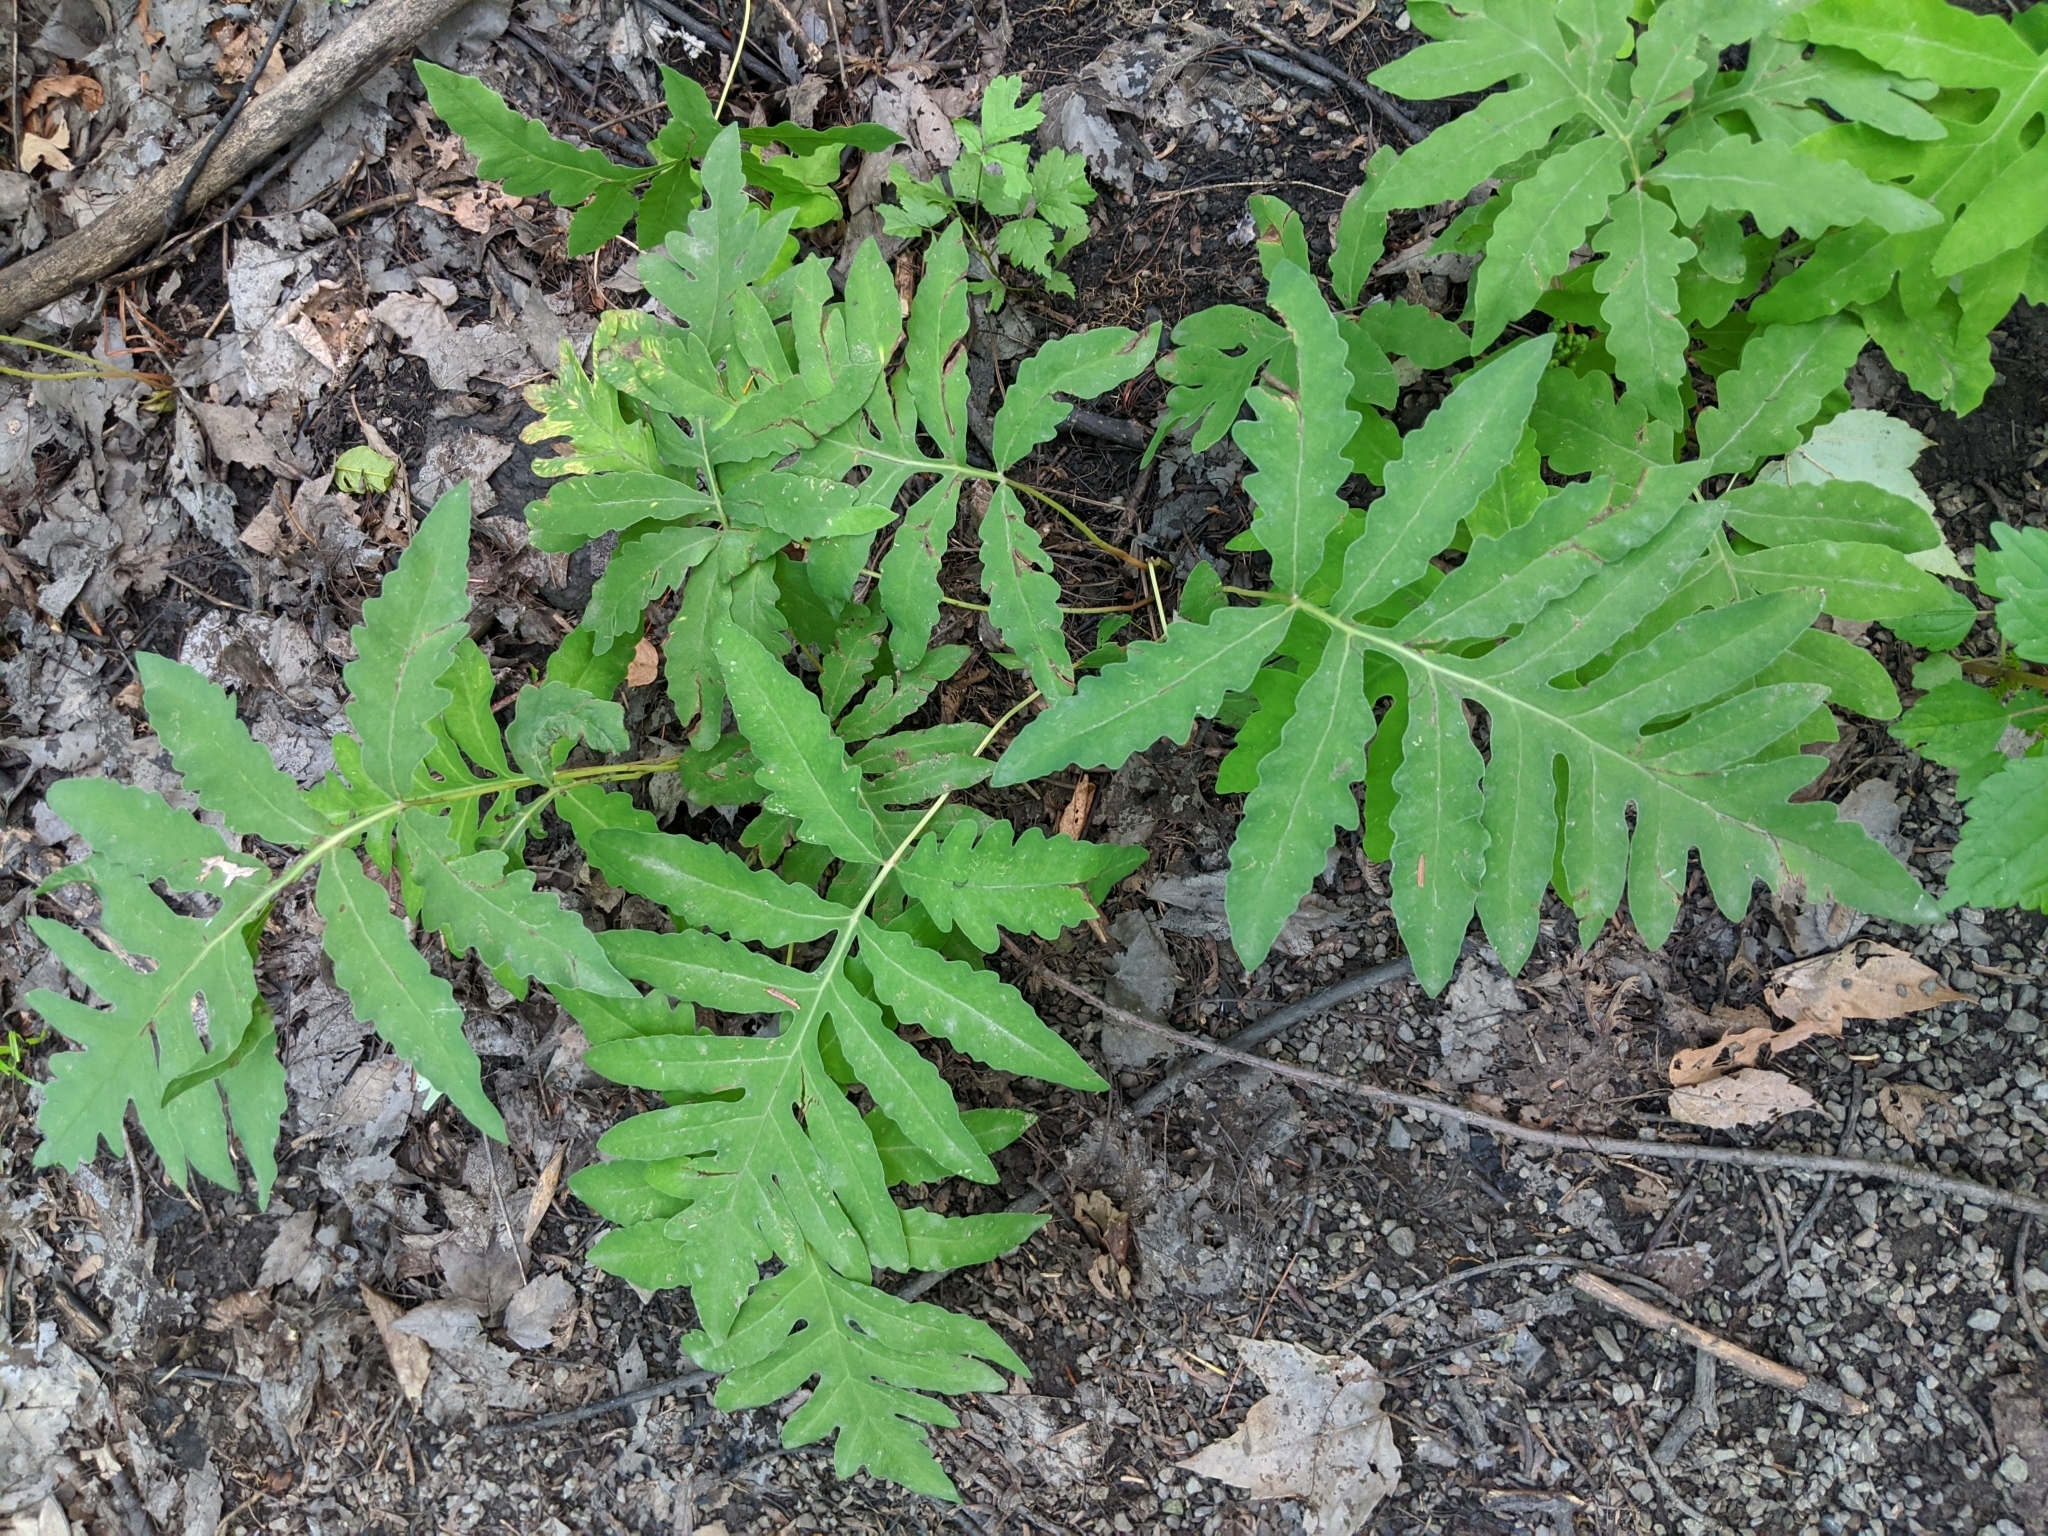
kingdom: Plantae
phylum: Tracheophyta
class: Polypodiopsida
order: Polypodiales
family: Onocleaceae
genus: Onoclea
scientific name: Onoclea sensibilis
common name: Sensitive fern
